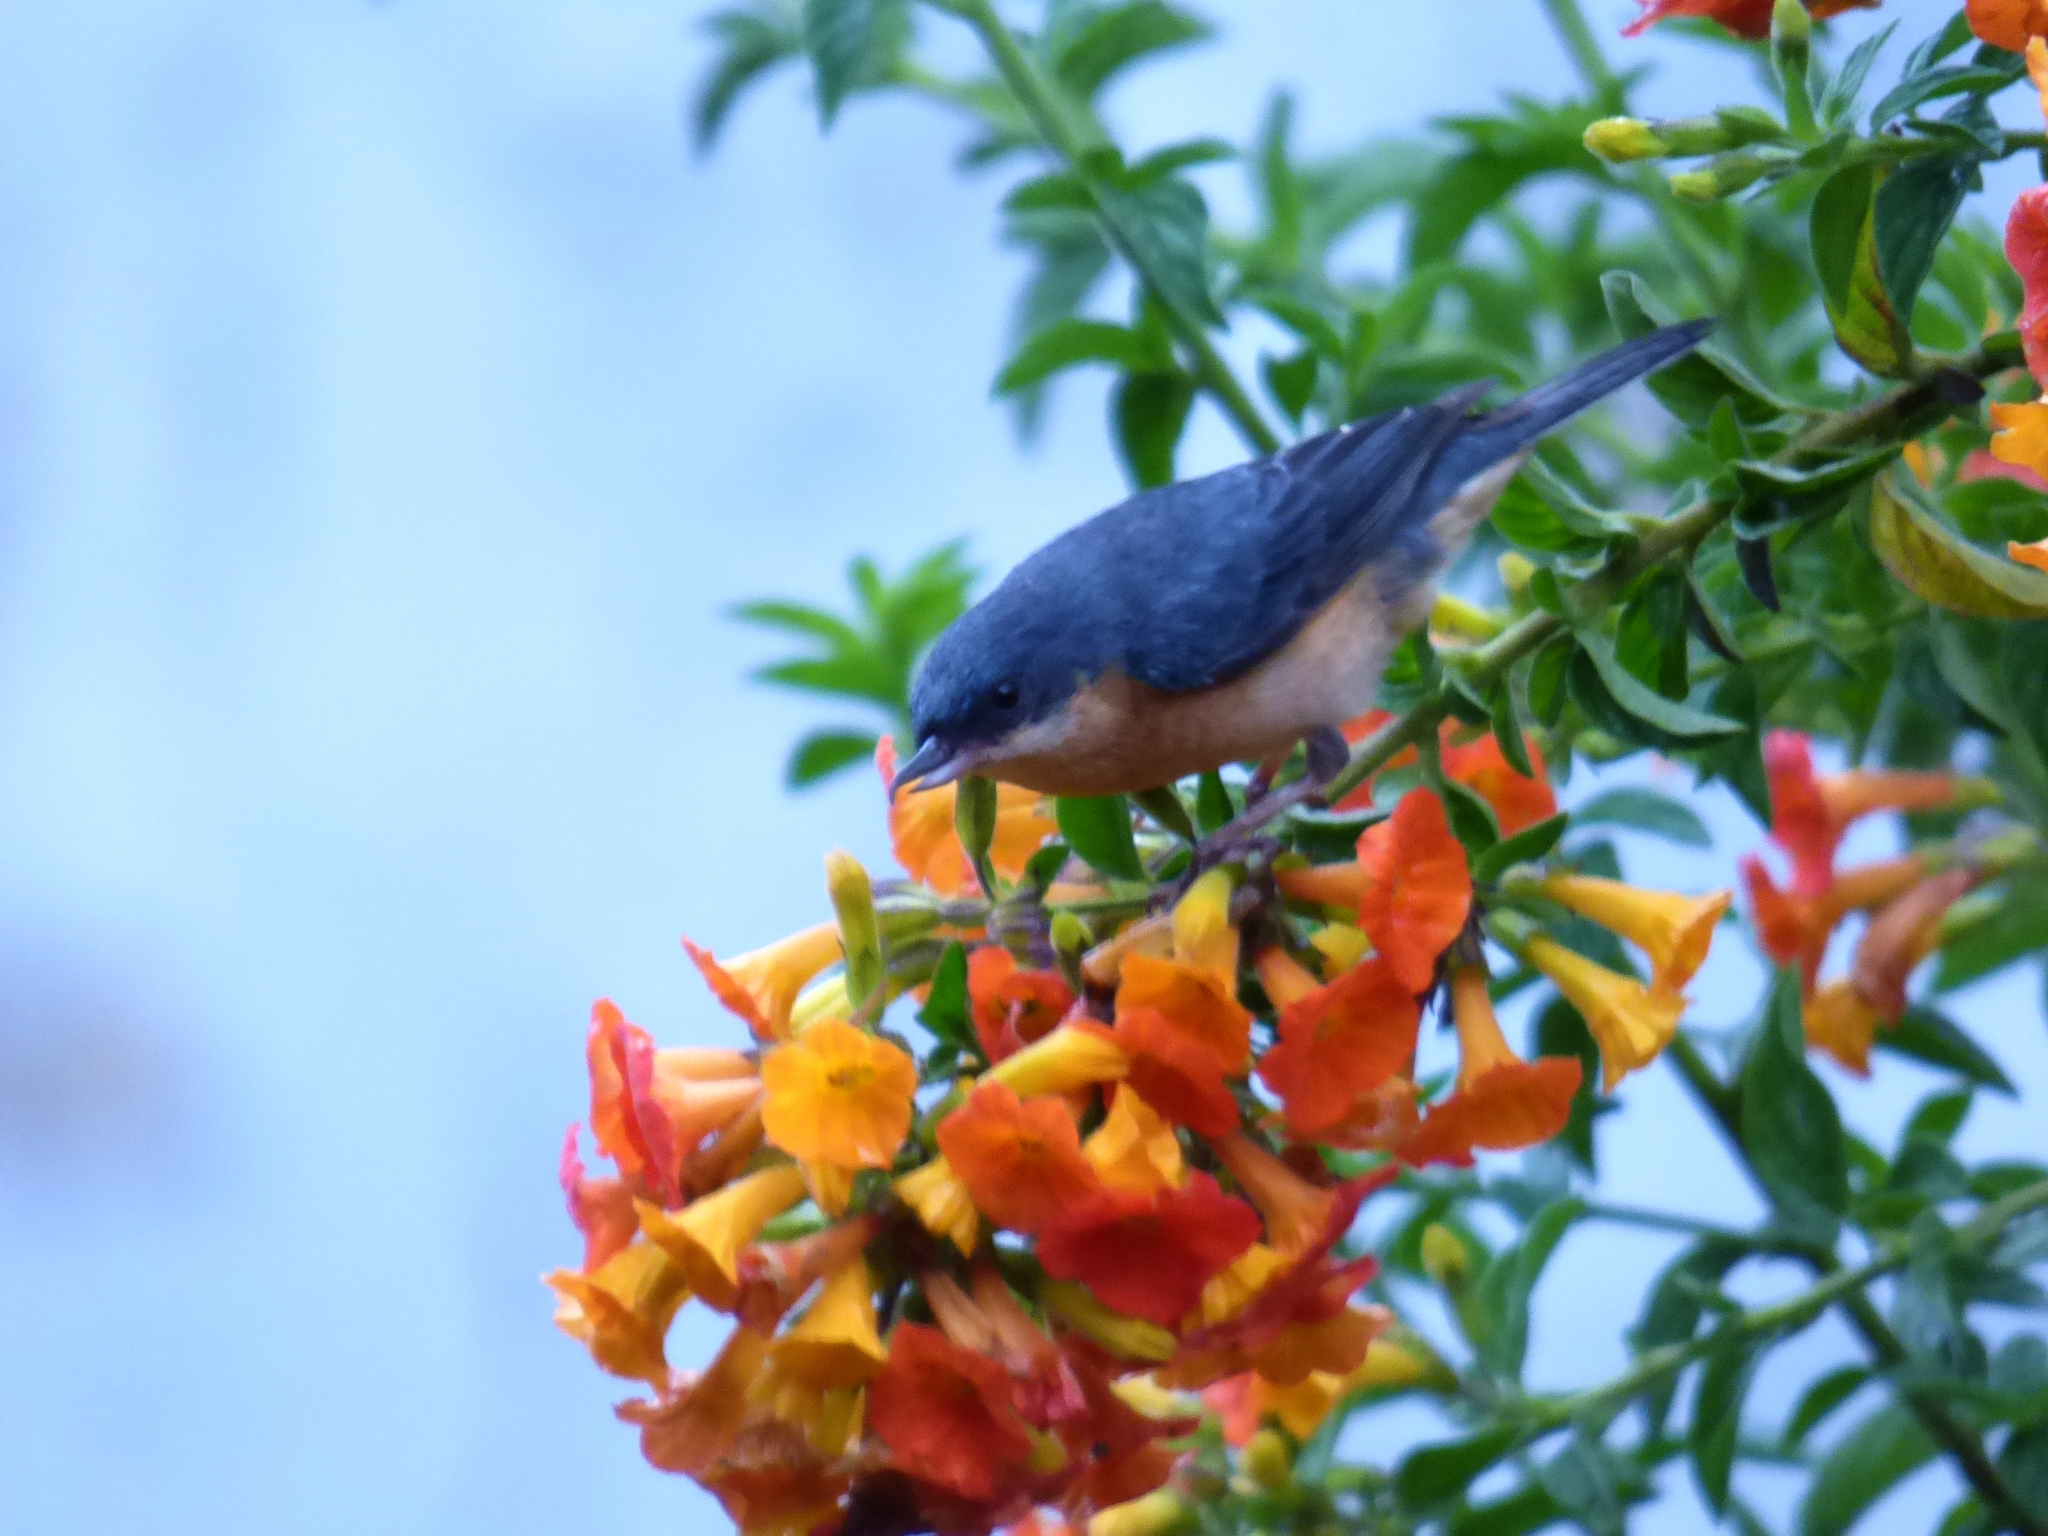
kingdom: Animalia
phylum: Chordata
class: Aves
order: Passeriformes
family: Thraupidae
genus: Diglossa
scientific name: Diglossa sittoides
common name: Rusty flowerpiercer
